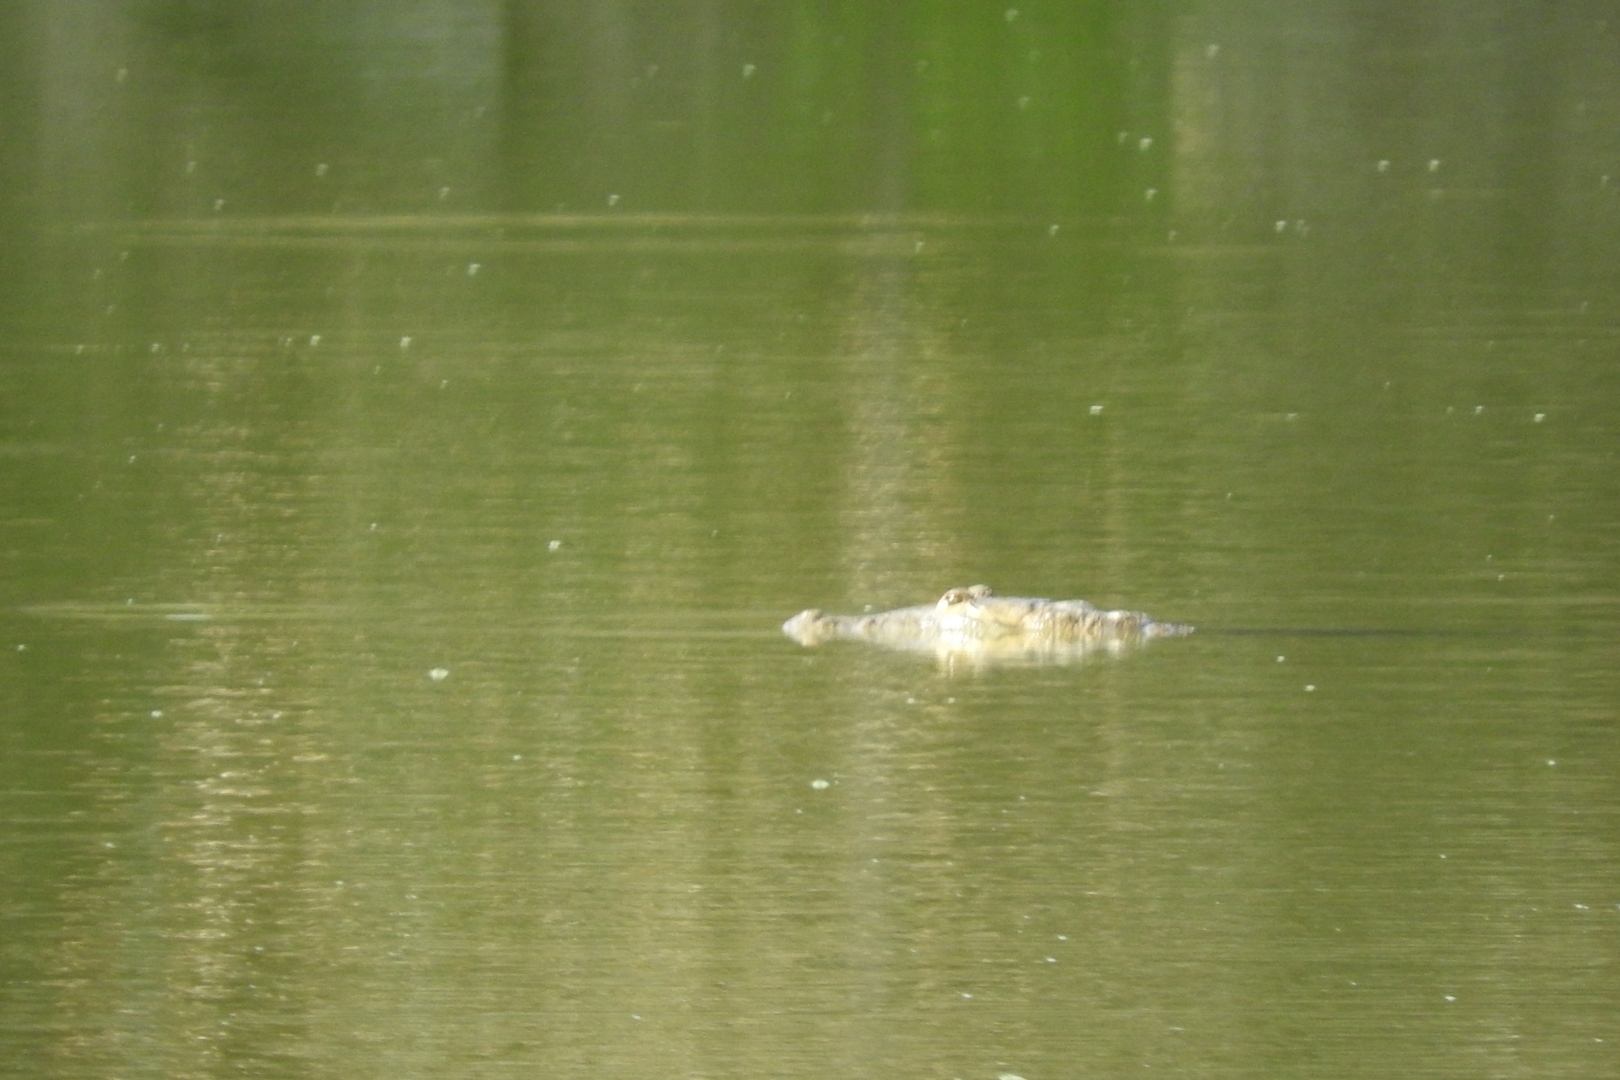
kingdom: Animalia
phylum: Chordata
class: Crocodylia
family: Crocodylidae
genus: Crocodylus
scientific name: Crocodylus moreletii
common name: Morelet's crocodile
